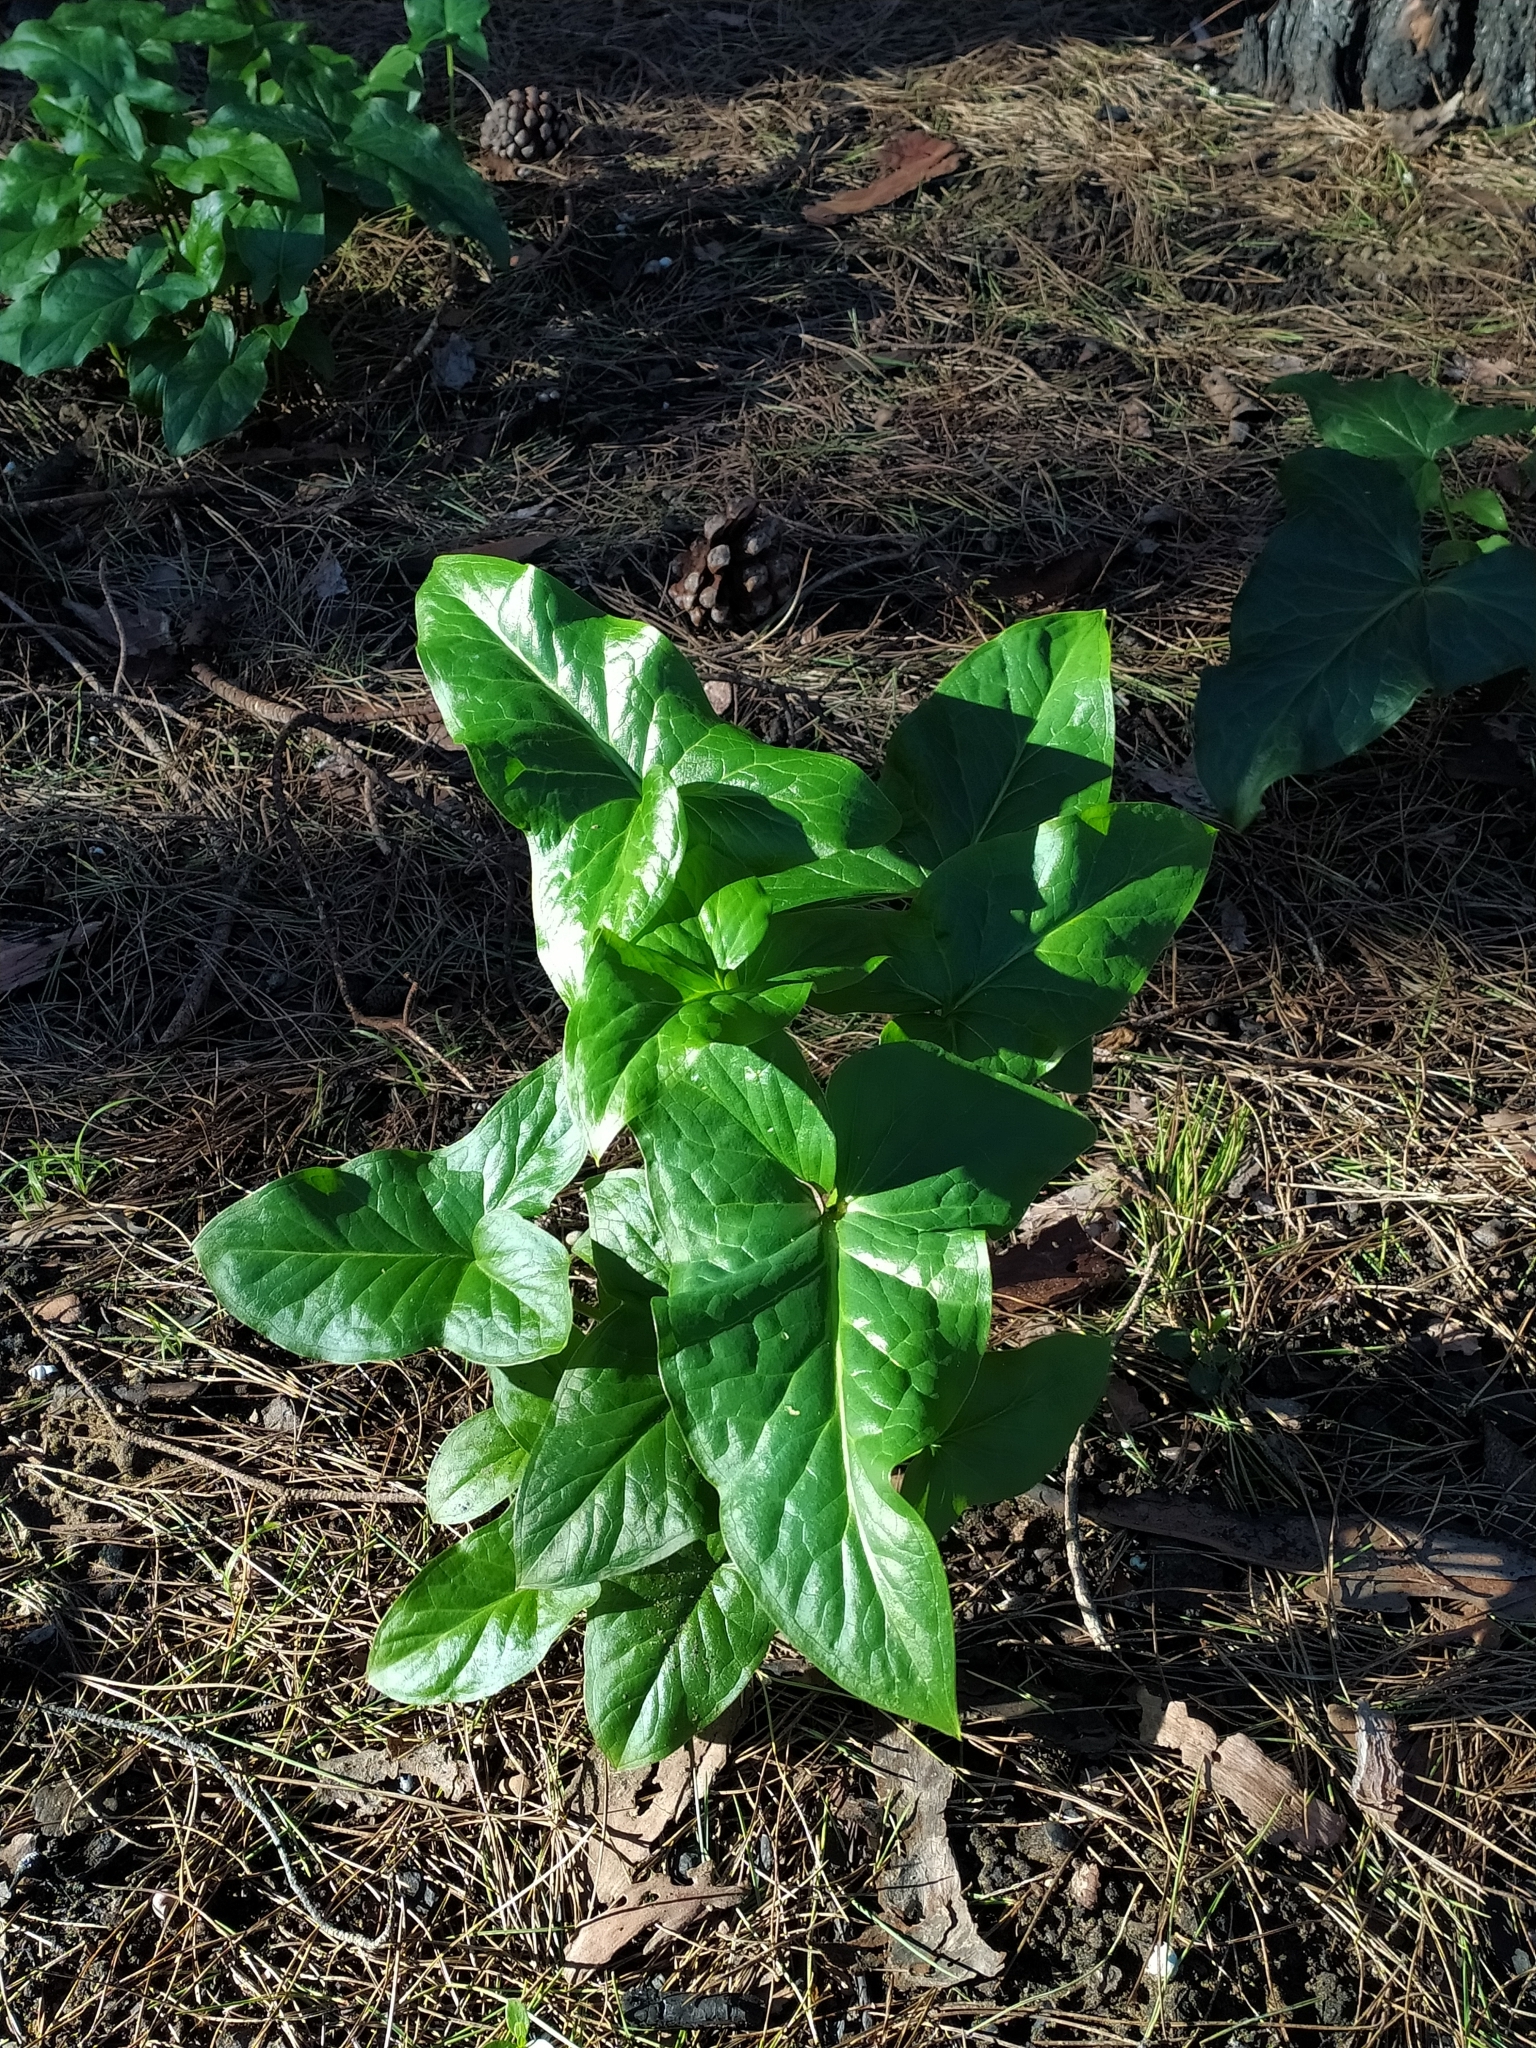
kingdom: Plantae
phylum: Tracheophyta
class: Liliopsida
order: Alismatales
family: Araceae
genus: Arum
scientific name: Arum italicum
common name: Italian lords-and-ladies
